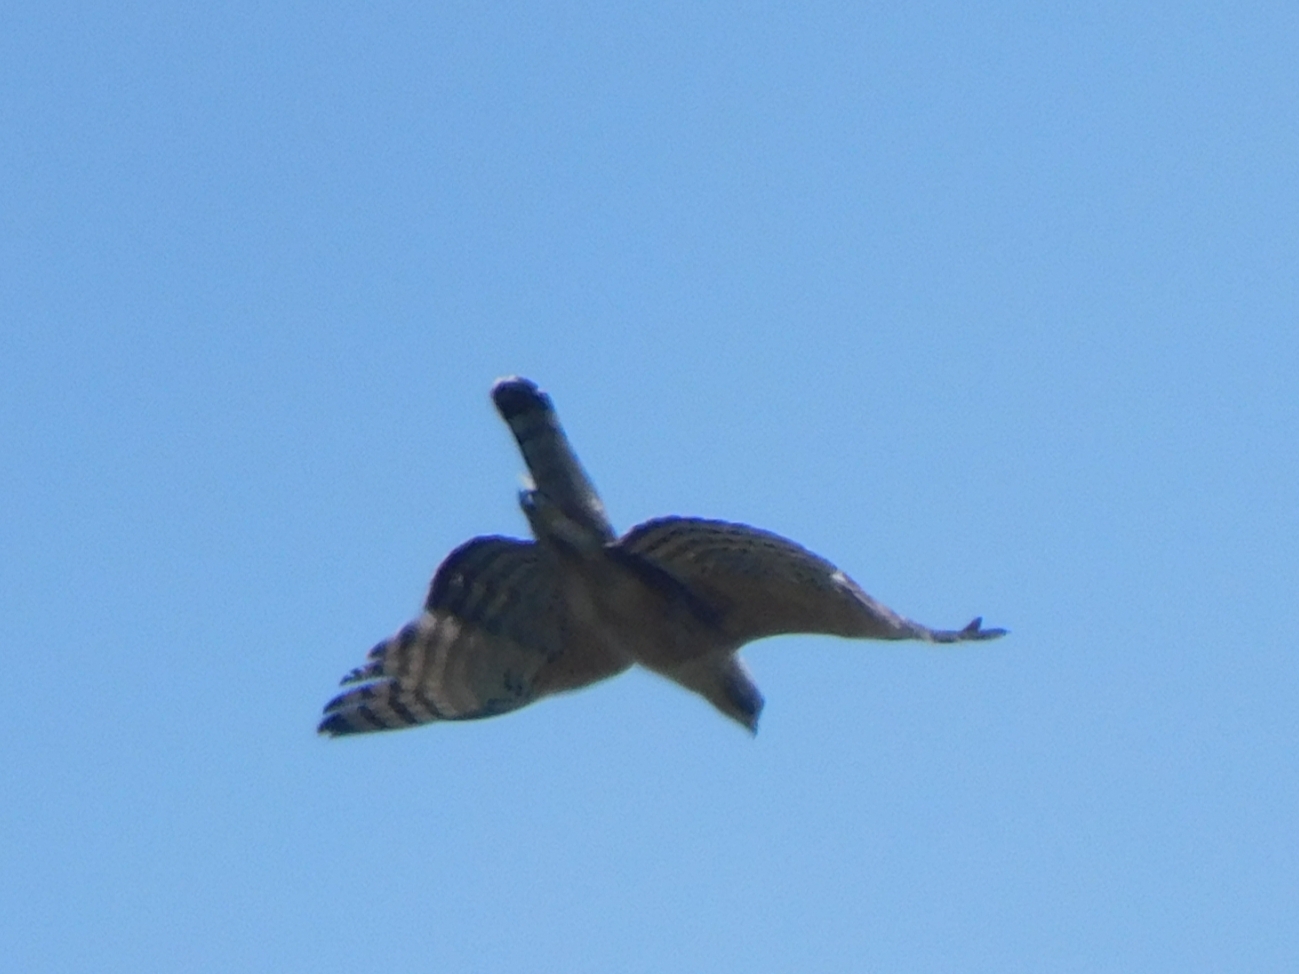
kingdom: Animalia
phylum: Chordata
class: Aves
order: Accipitriformes
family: Accipitridae
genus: Nisaetus
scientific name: Nisaetus nipalensis
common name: Mountain hawk-eagle
